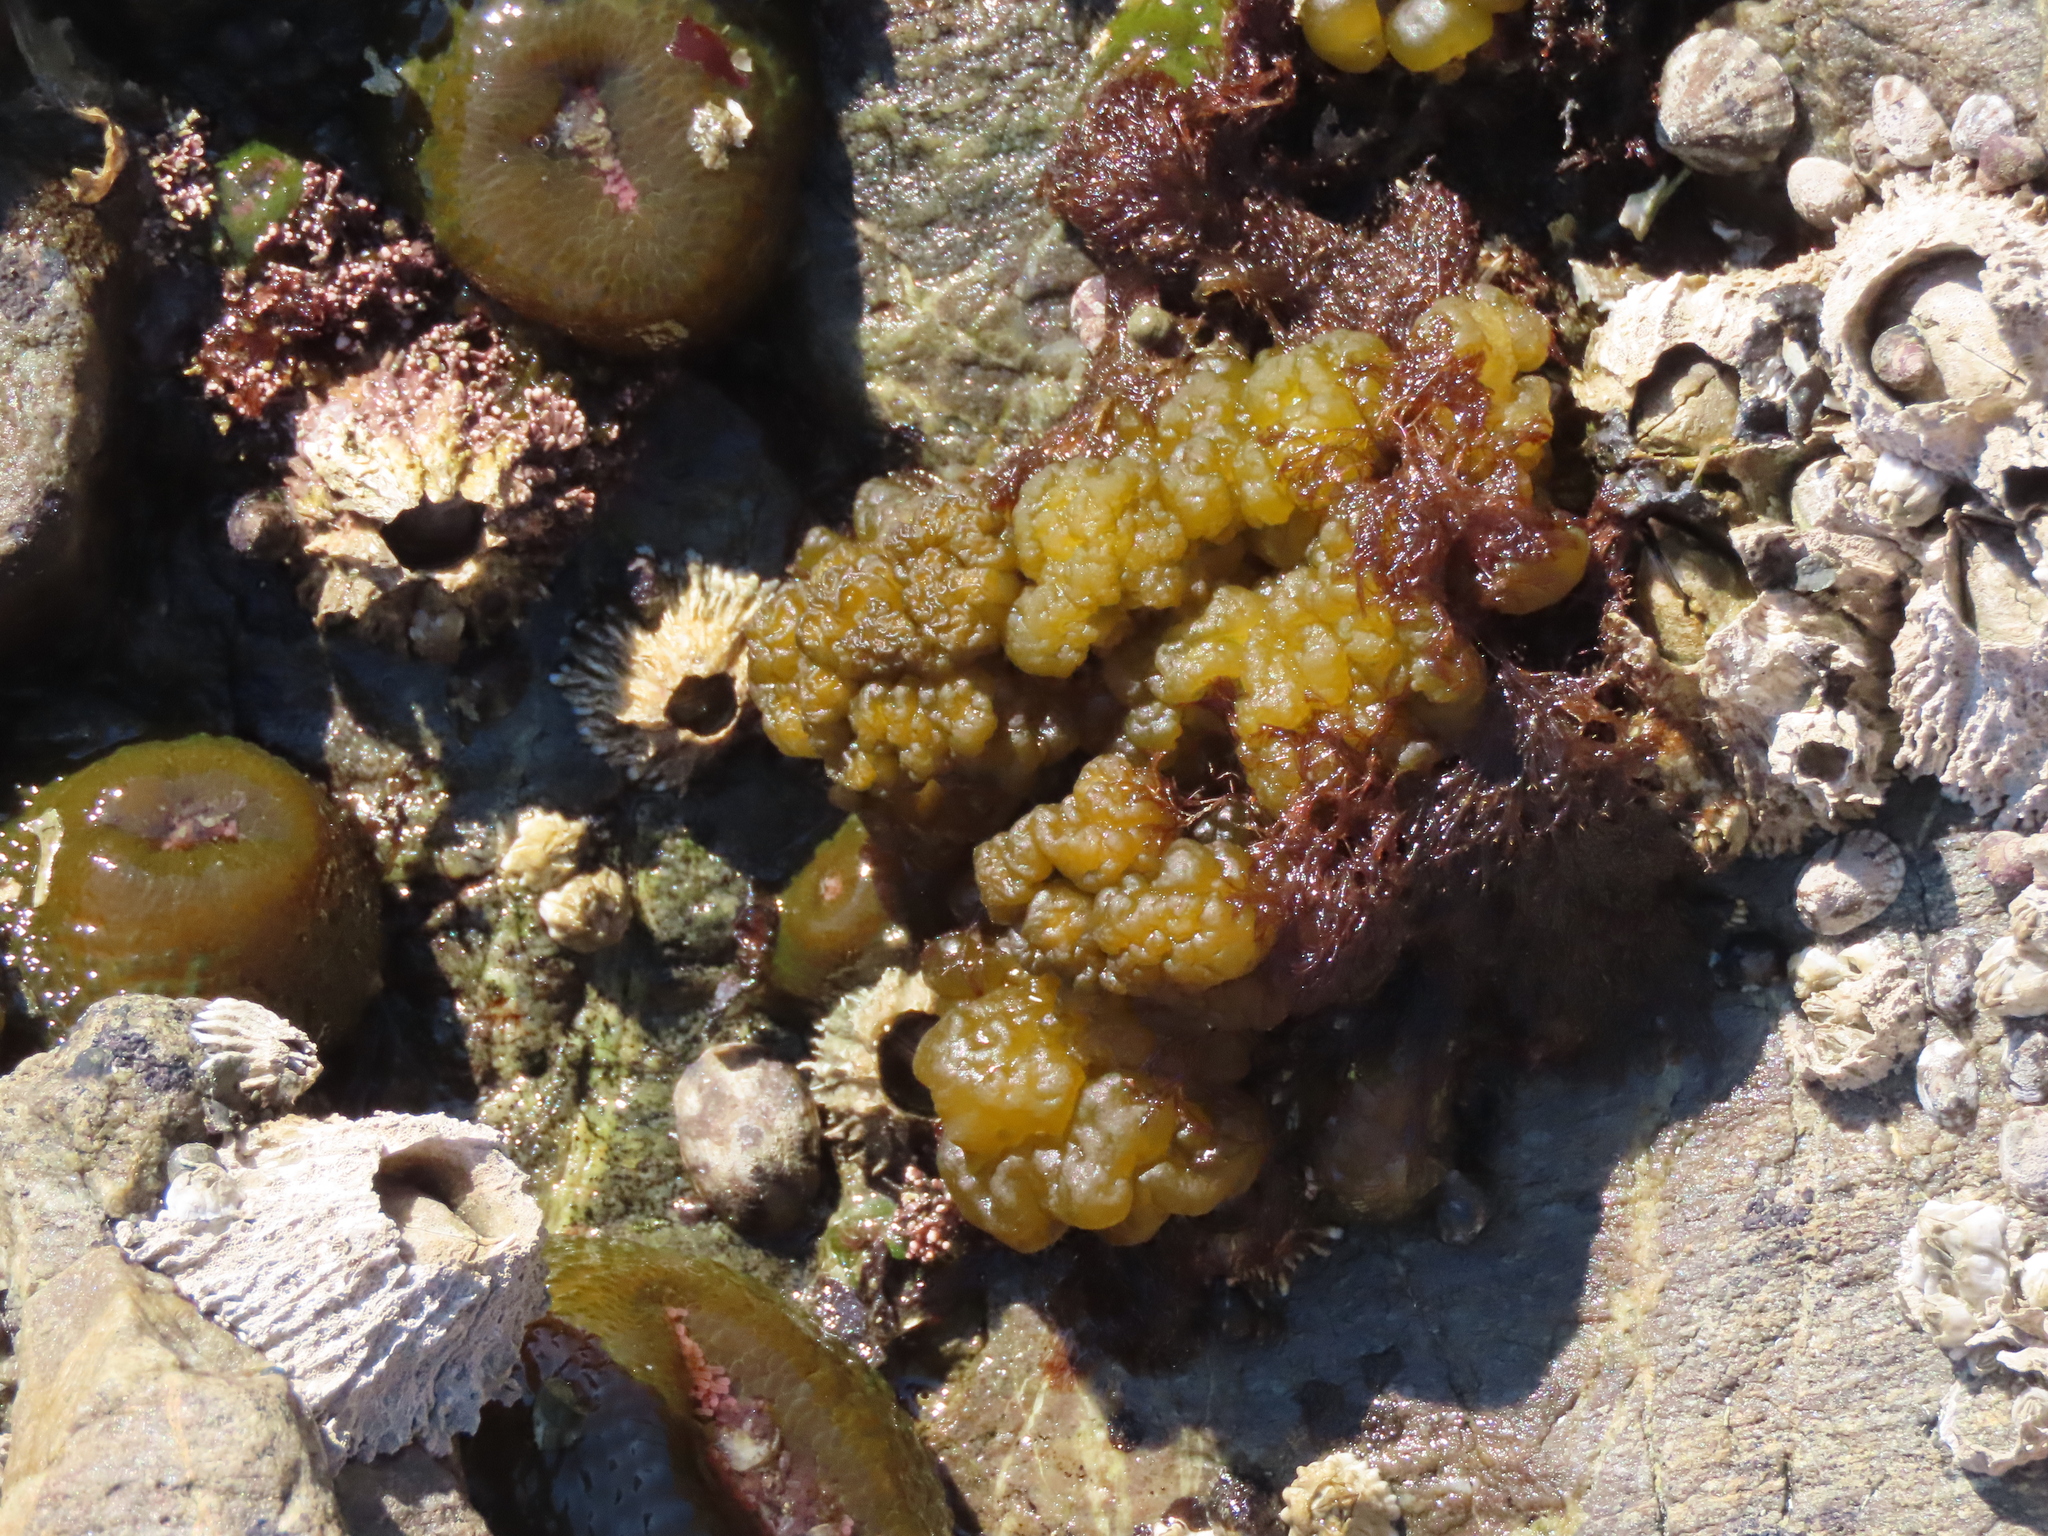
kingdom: Chromista
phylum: Ochrophyta
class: Phaeophyceae
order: Ectocarpales
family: Chordariaceae
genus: Leathesia
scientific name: Leathesia marina
